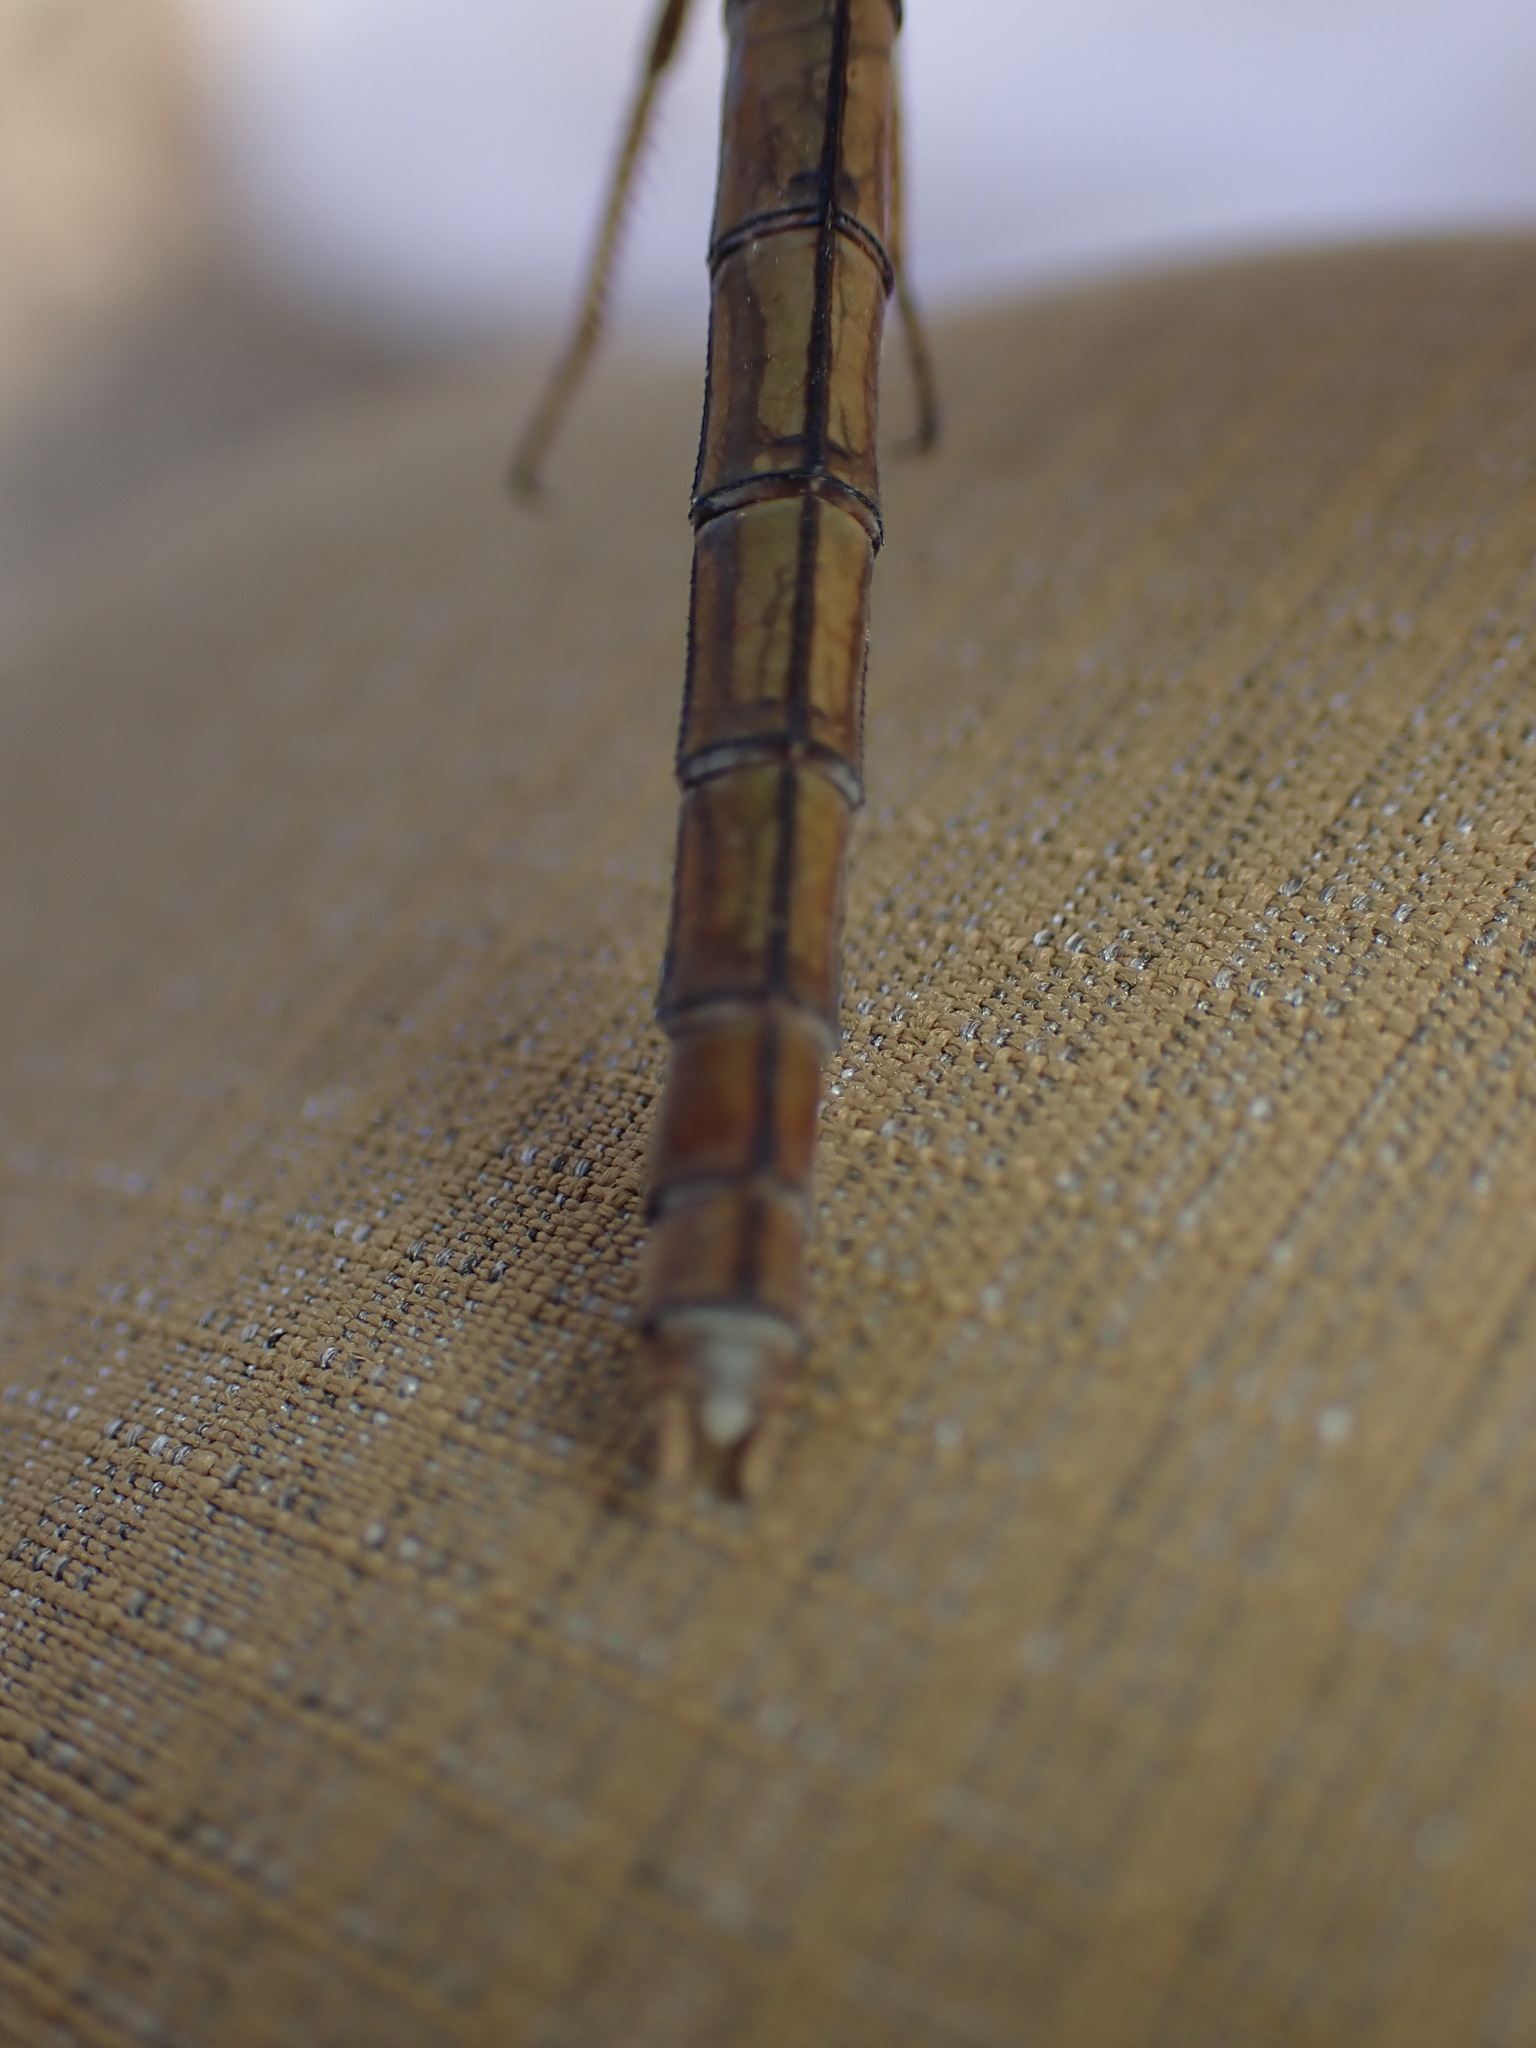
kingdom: Animalia
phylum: Arthropoda
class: Insecta
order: Odonata
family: Libellulidae
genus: Orthetrum
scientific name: Orthetrum coerulescens
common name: Keeled skimmer
